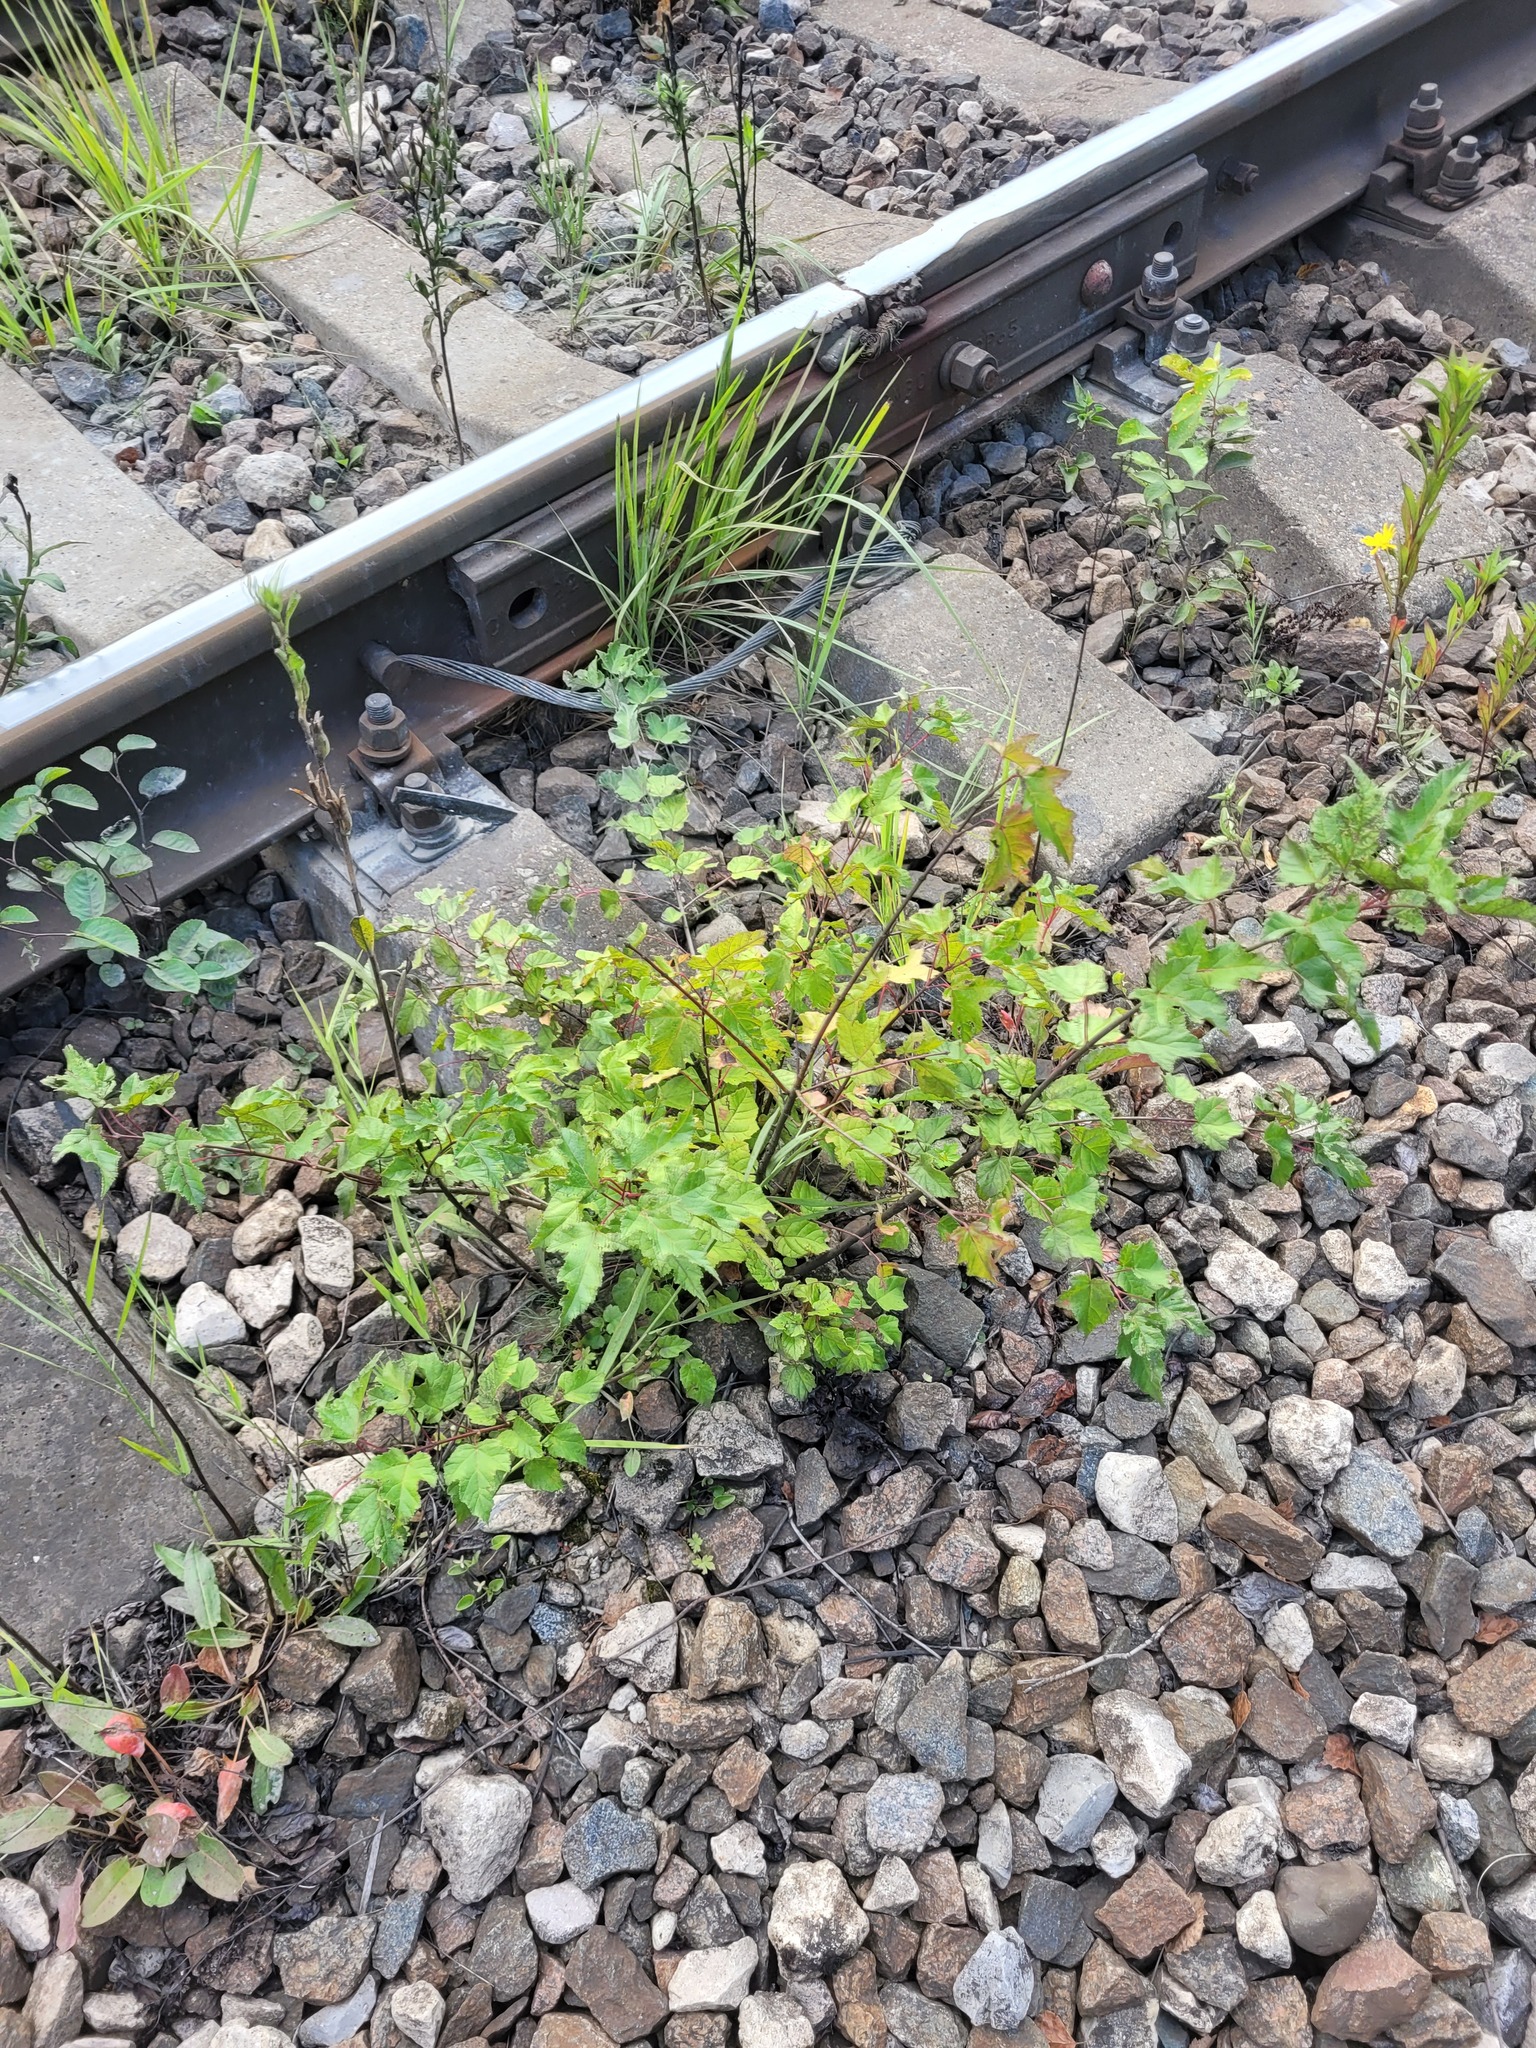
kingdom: Plantae
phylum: Tracheophyta
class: Magnoliopsida
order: Sapindales
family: Sapindaceae
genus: Acer
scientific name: Acer tataricum
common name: Tartar maple
